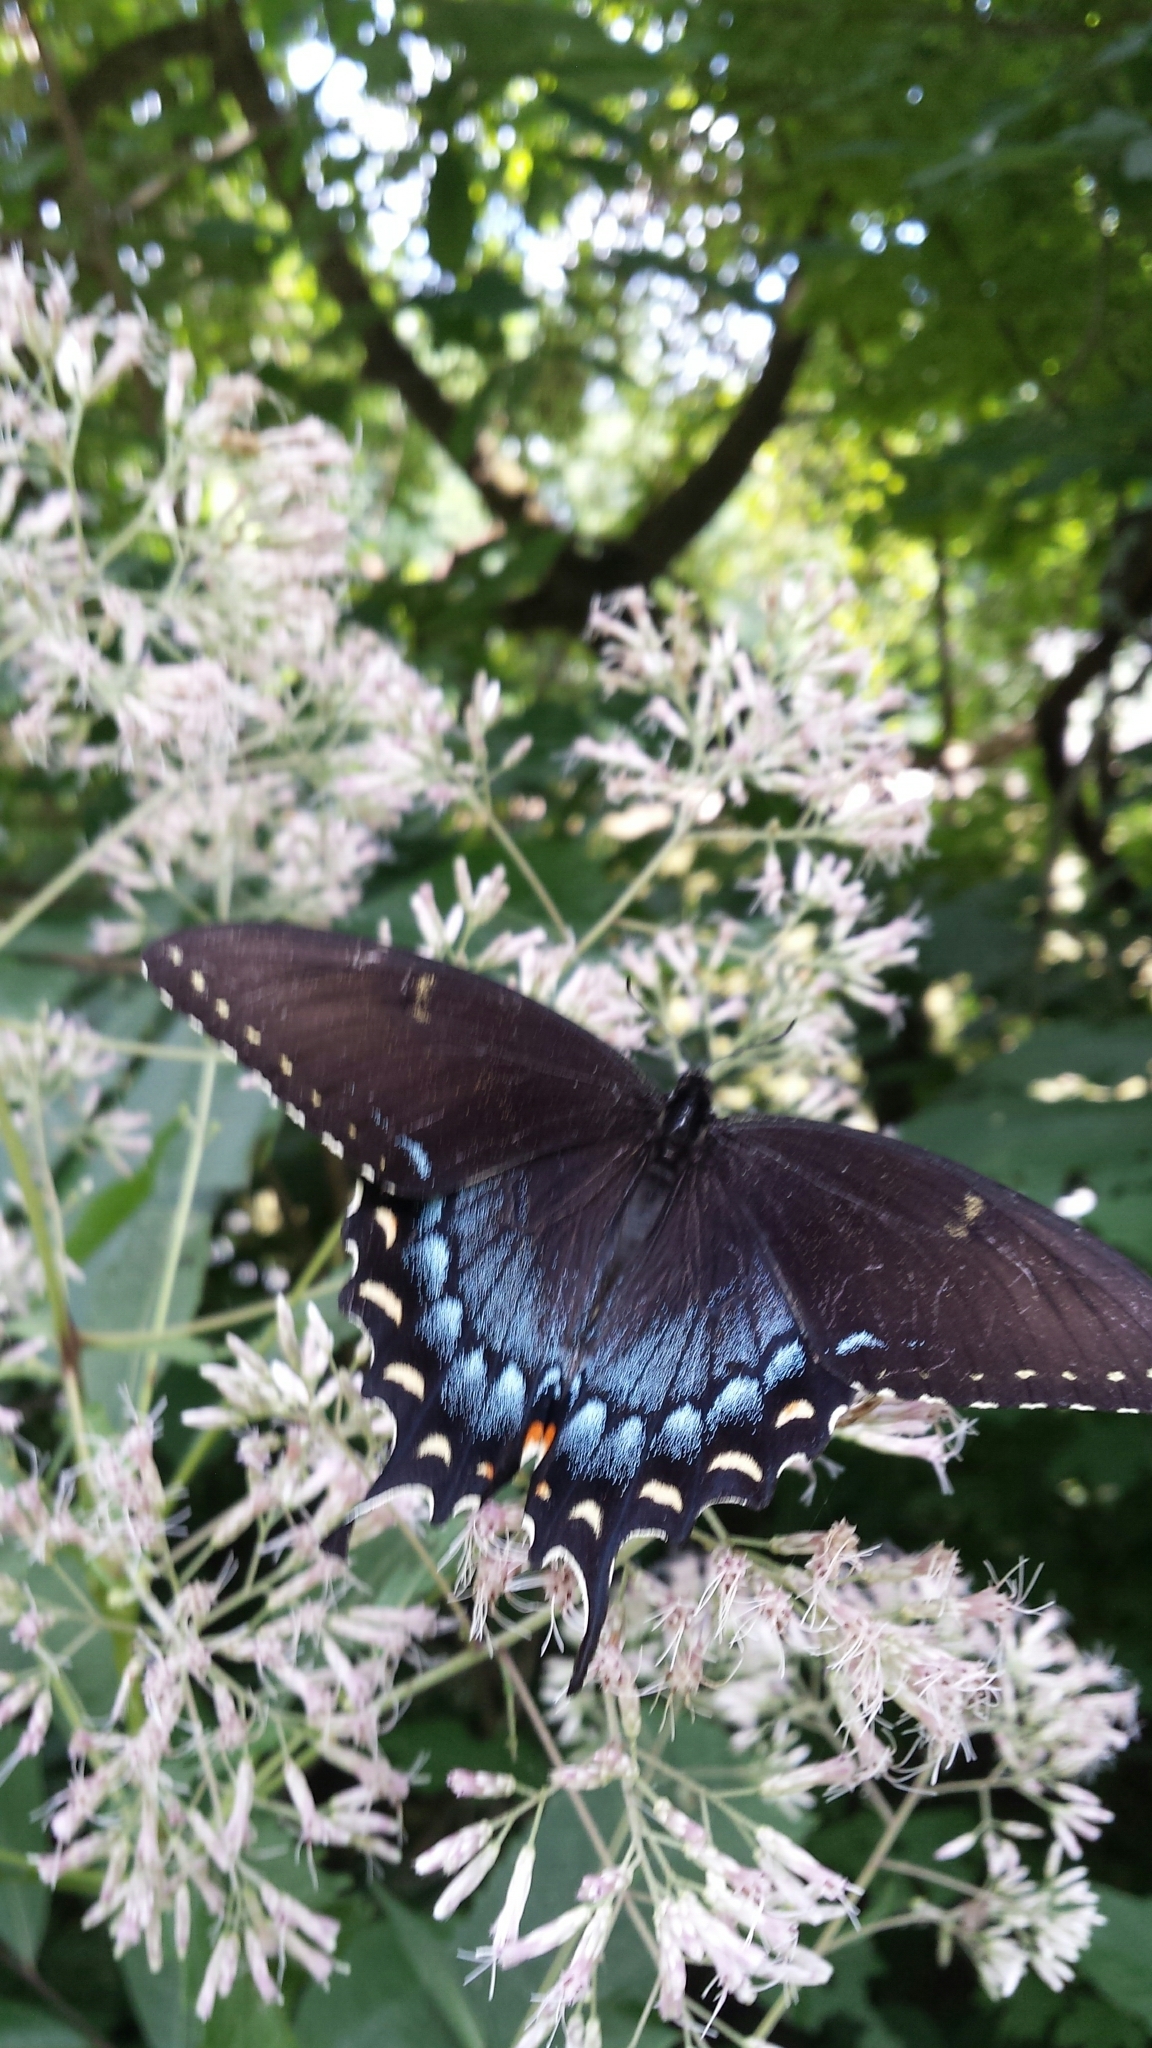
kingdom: Animalia
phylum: Arthropoda
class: Insecta
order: Lepidoptera
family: Papilionidae
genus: Papilio
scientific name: Papilio glaucus
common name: Tiger swallowtail
